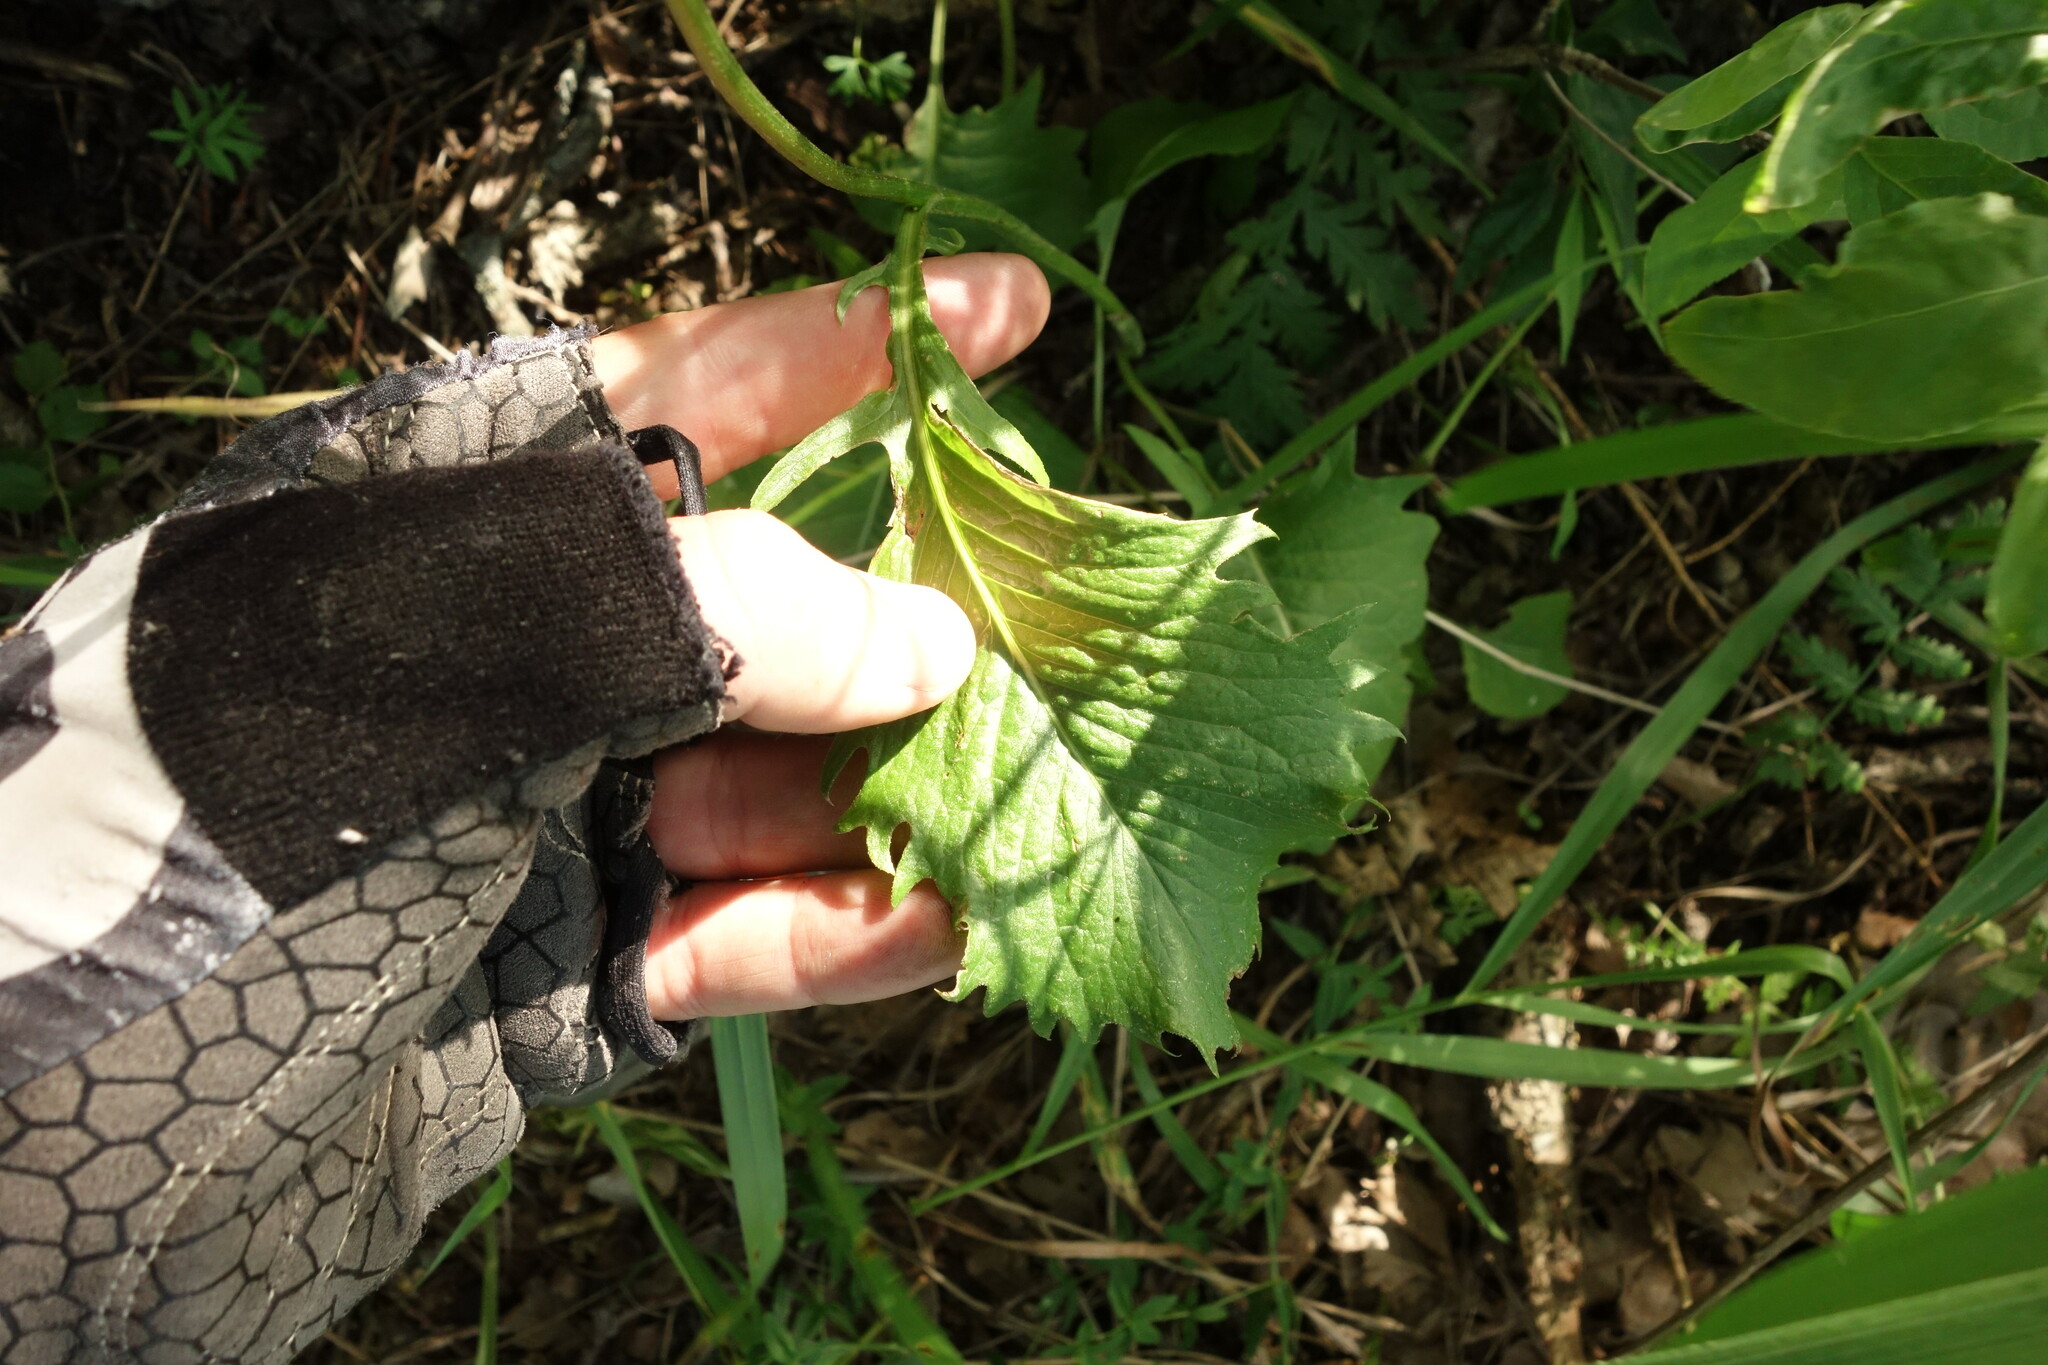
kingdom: Plantae
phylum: Tracheophyta
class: Magnoliopsida
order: Asterales
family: Asteraceae
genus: Klasea
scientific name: Klasea lycopifolia
